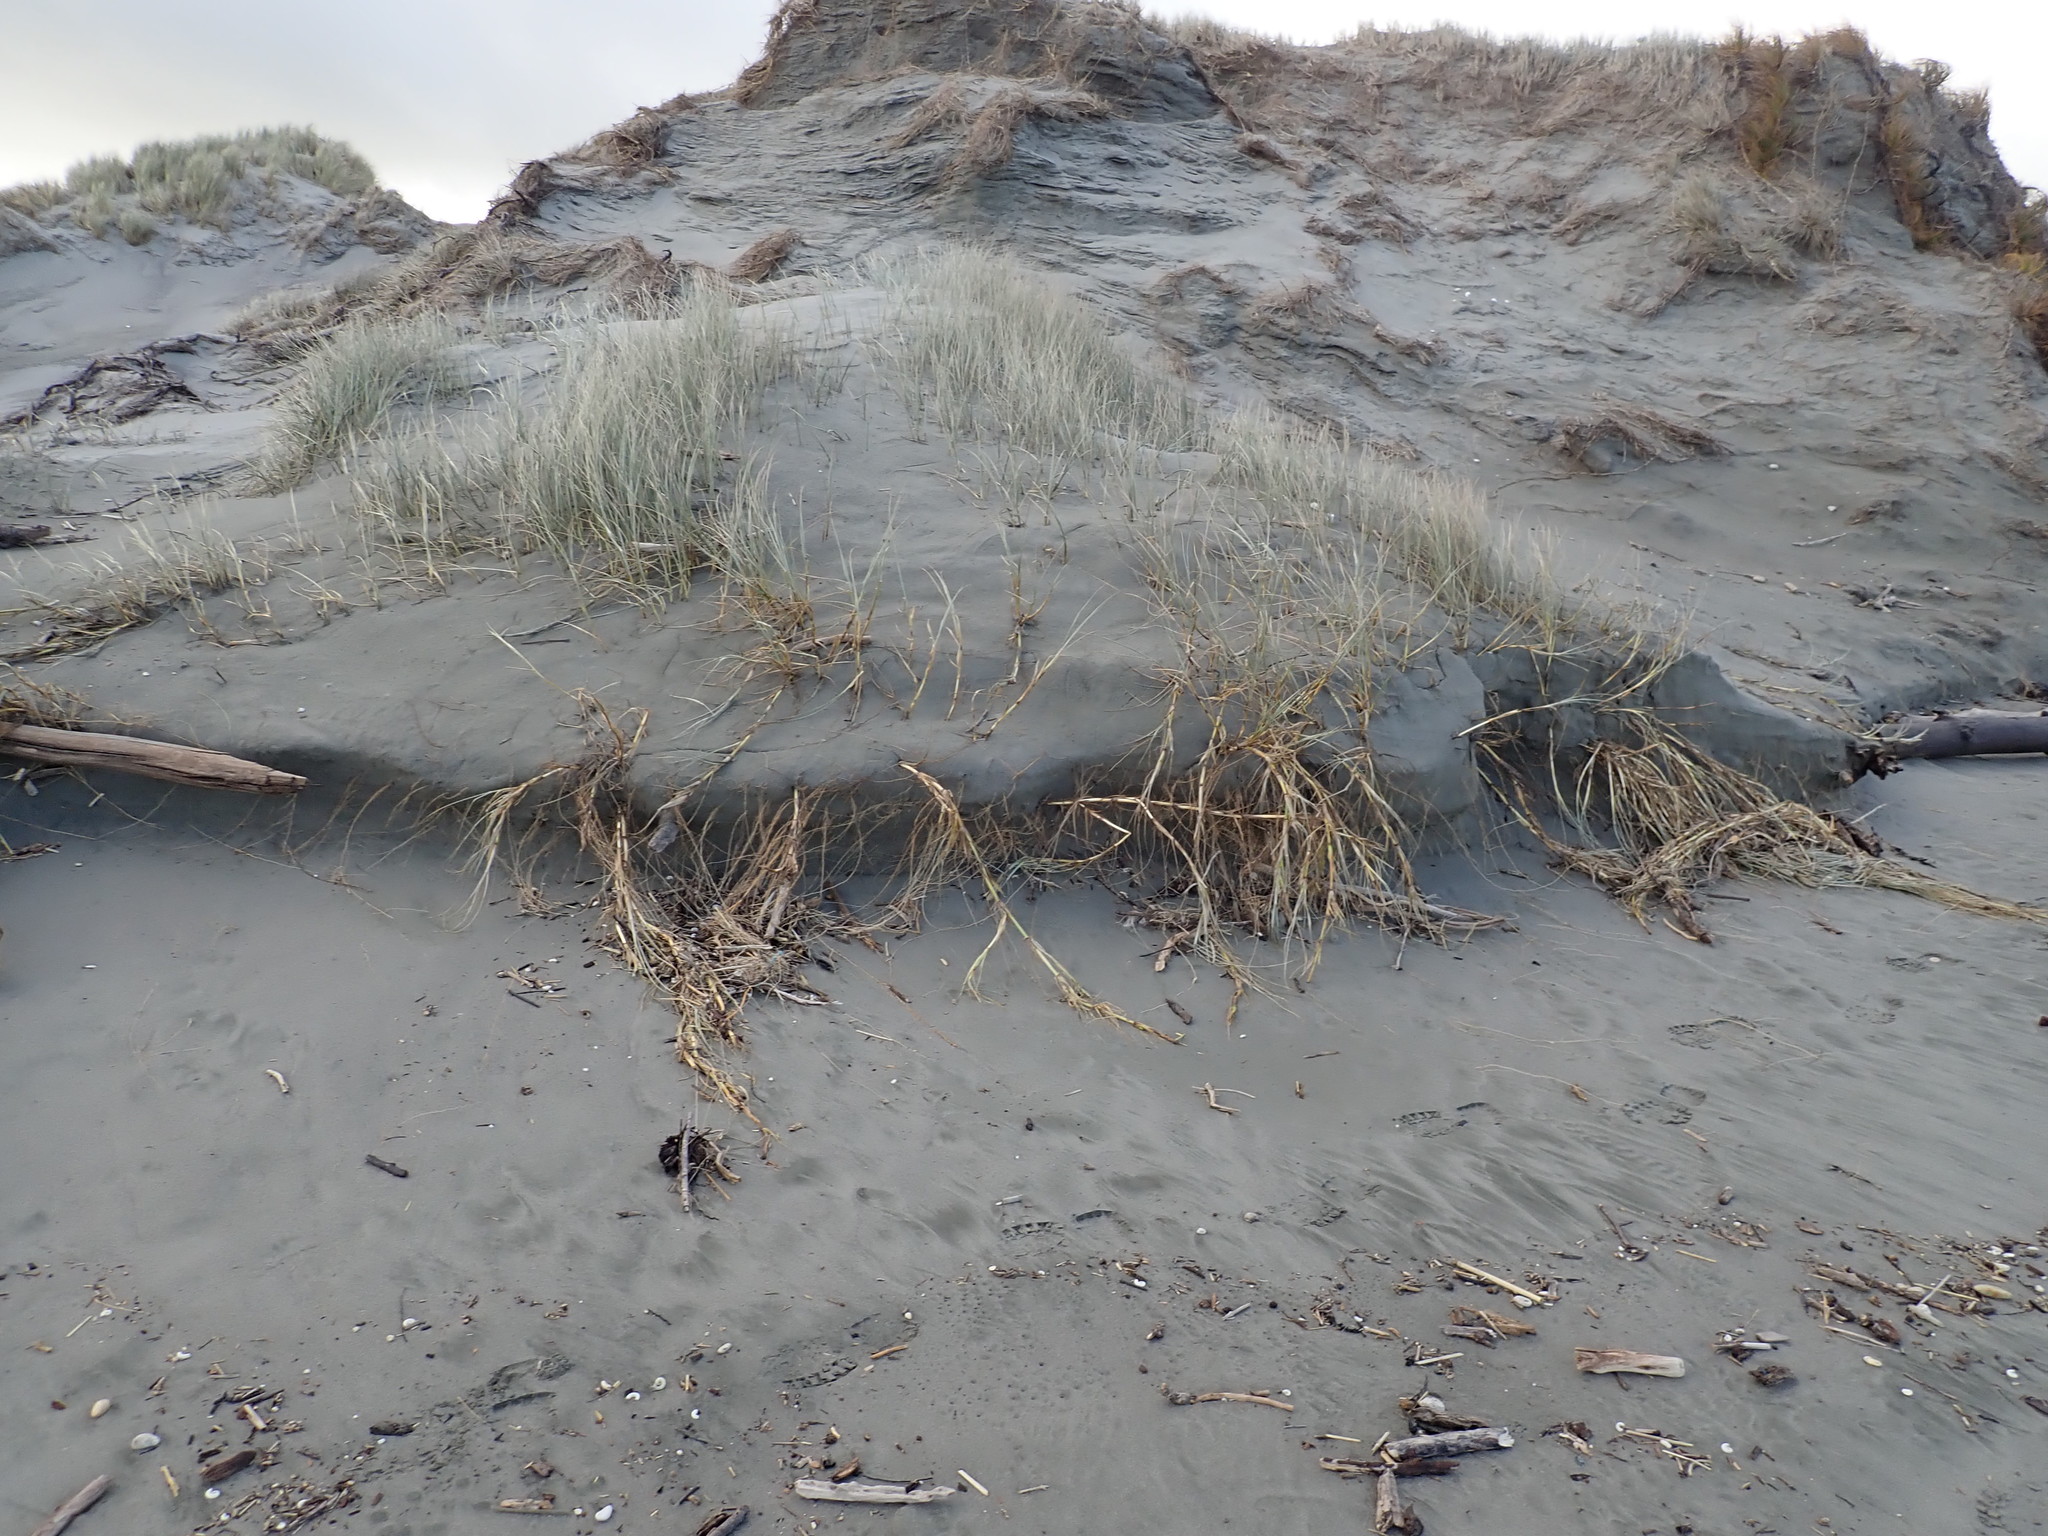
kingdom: Plantae
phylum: Tracheophyta
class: Liliopsida
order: Poales
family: Poaceae
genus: Spinifex
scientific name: Spinifex sericeus
